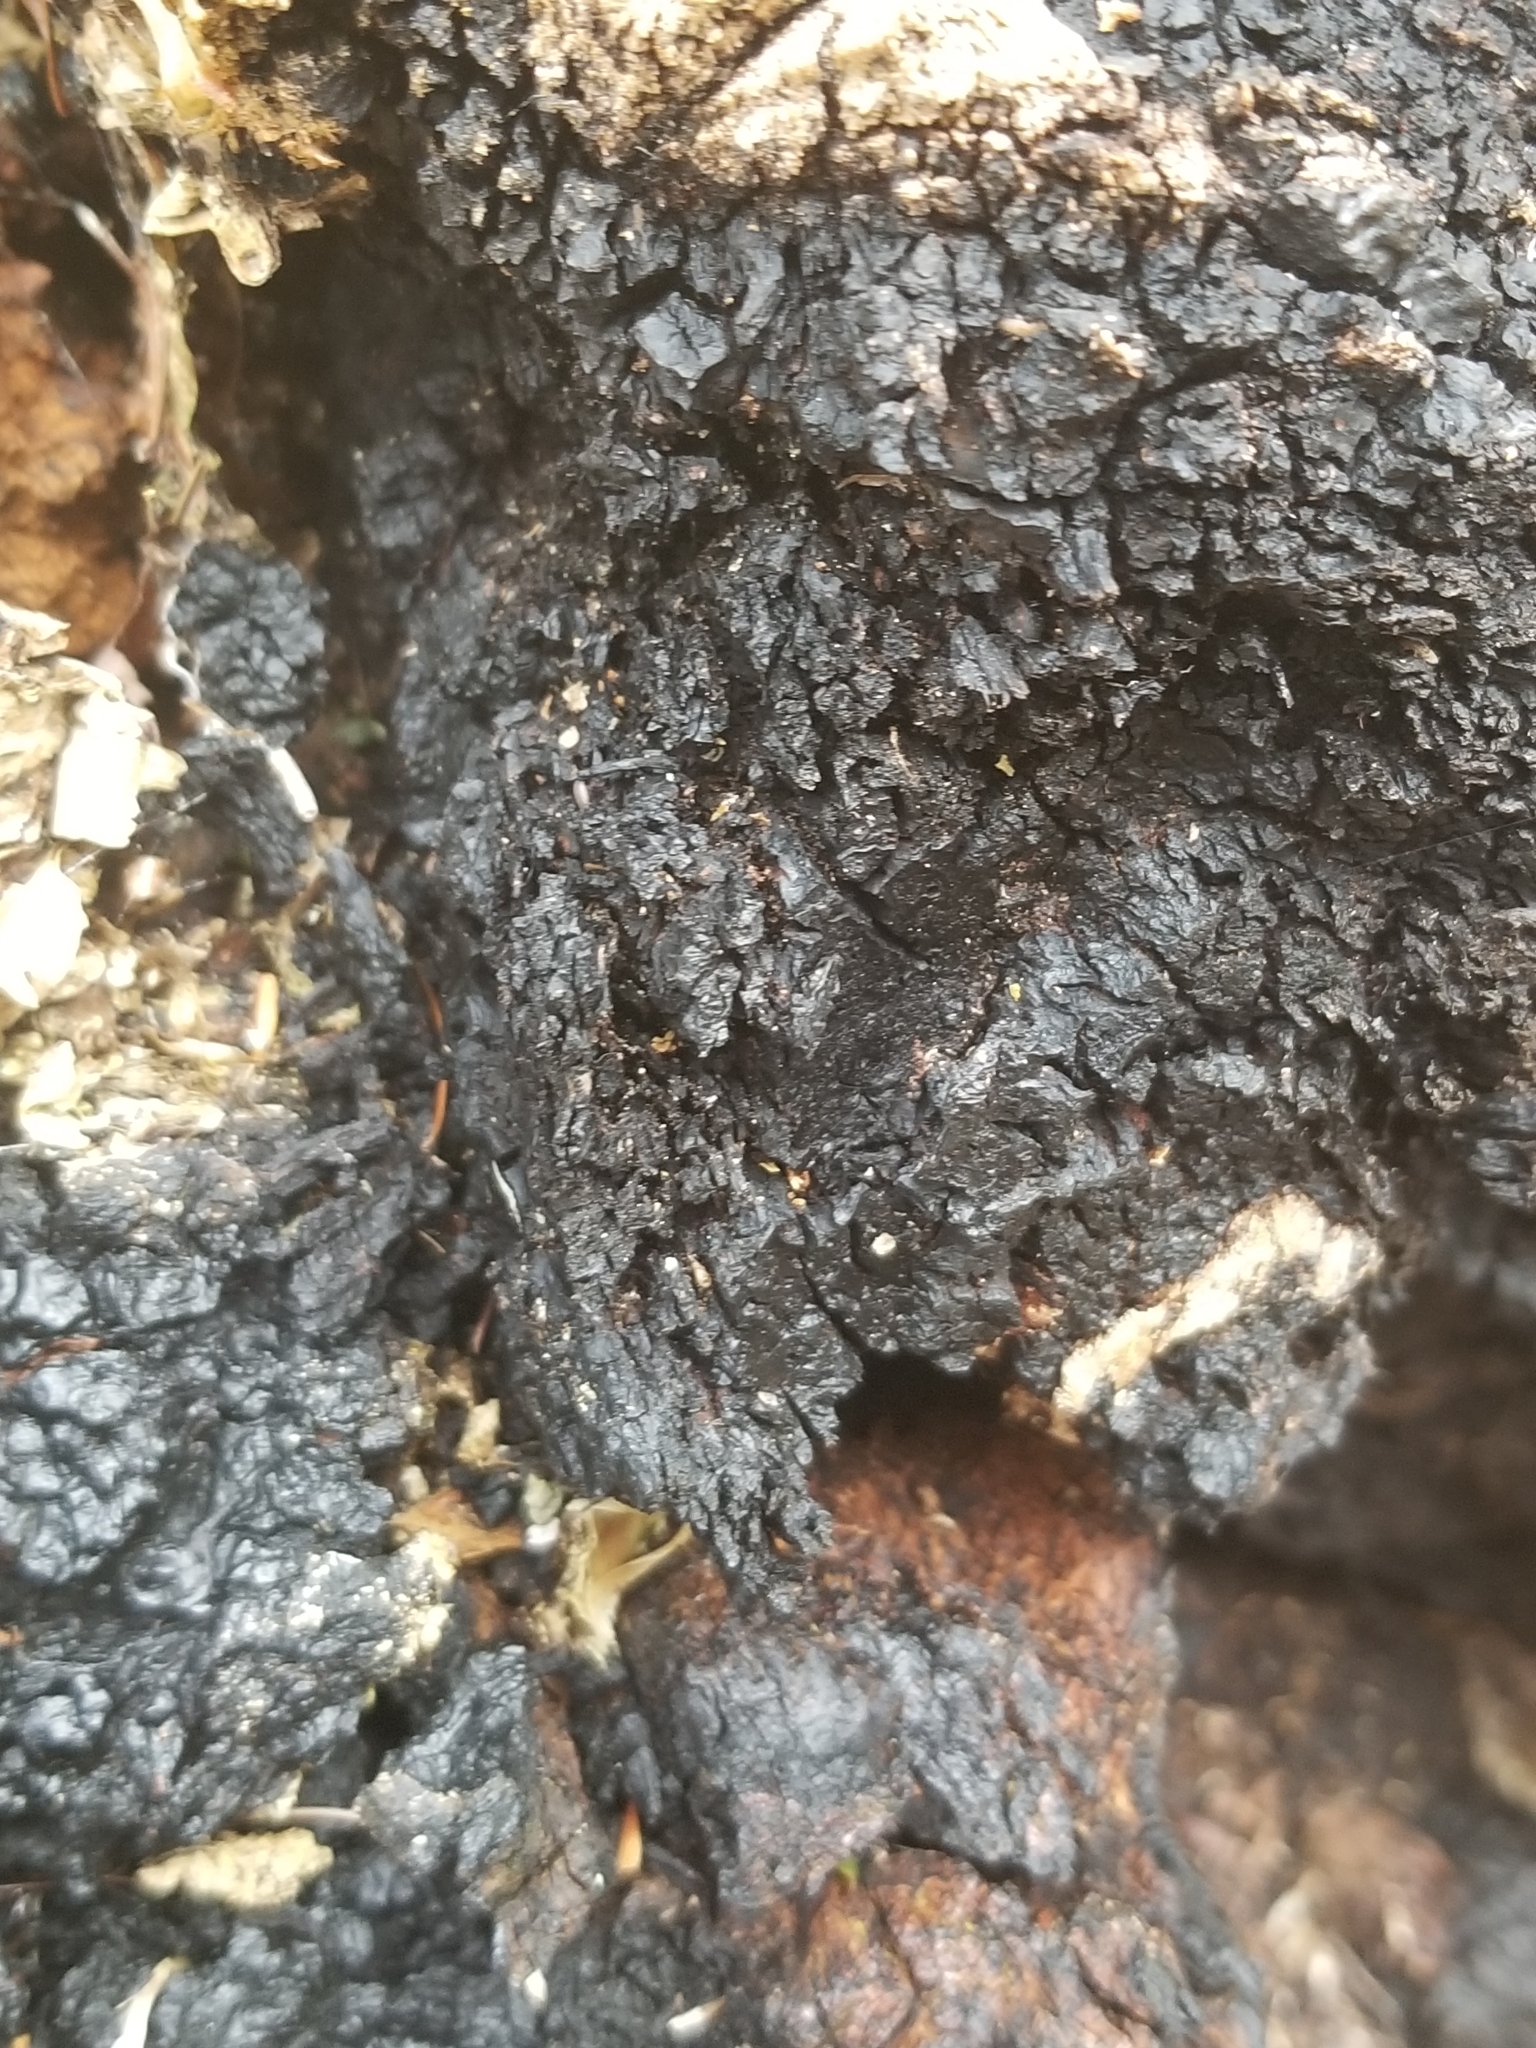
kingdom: Fungi
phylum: Basidiomycota
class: Agaricomycetes
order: Hymenochaetales
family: Hymenochaetaceae
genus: Inonotus
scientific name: Inonotus obliquus
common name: Chaga
